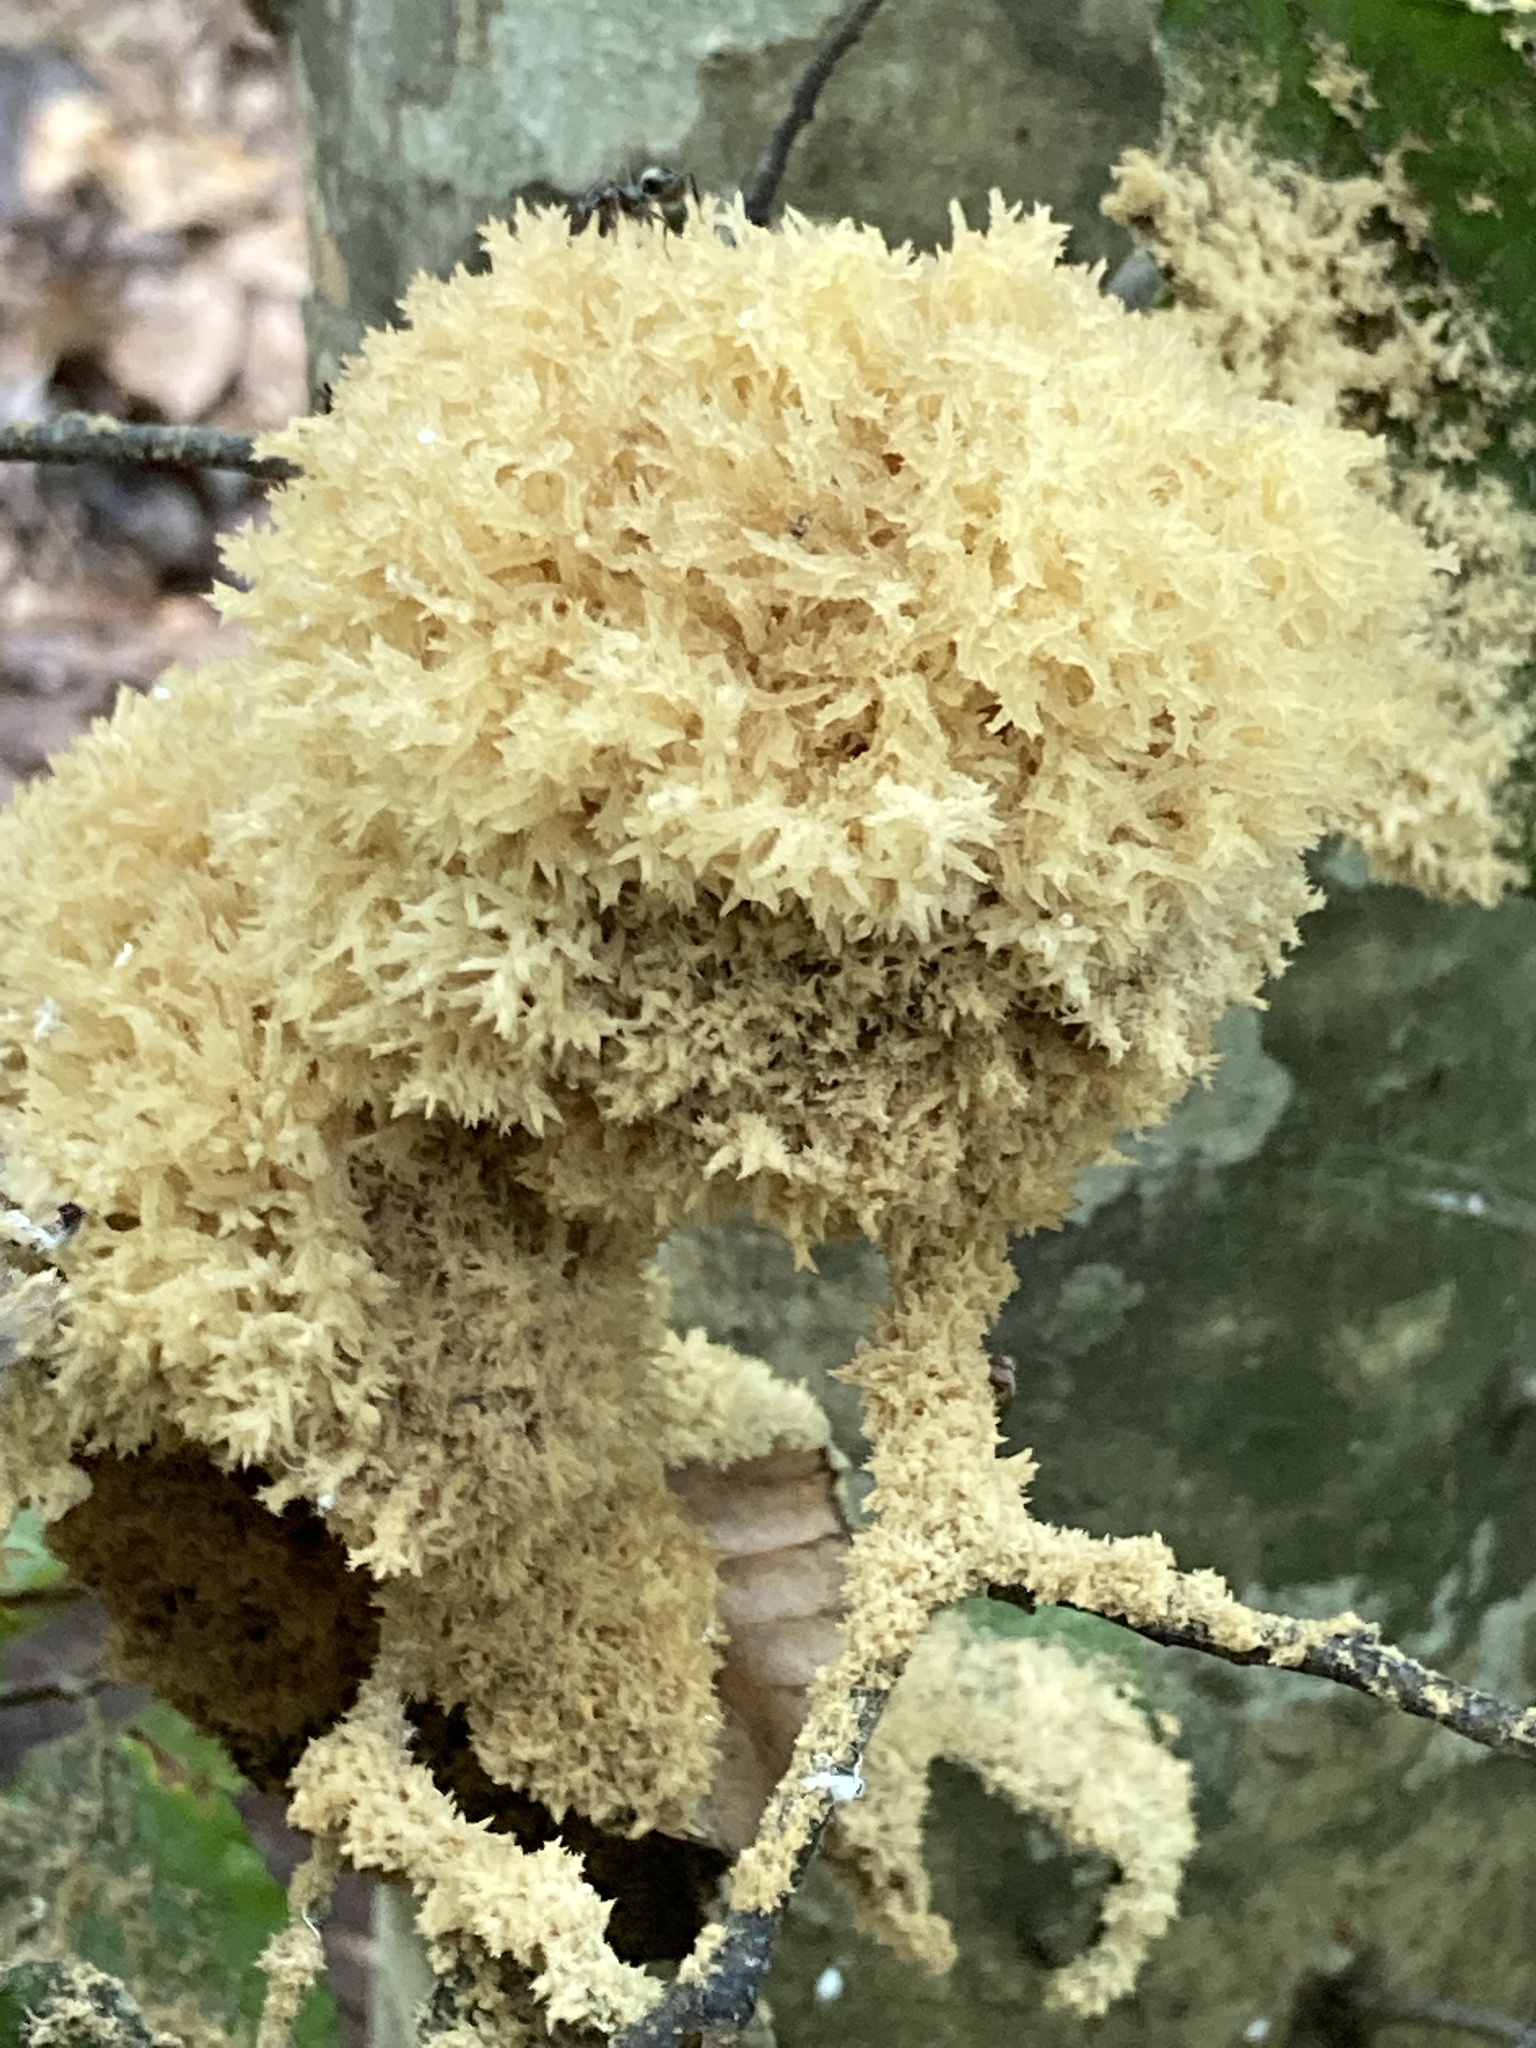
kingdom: Fungi
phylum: Ascomycota
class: Dothideomycetes
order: Capnodiales
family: Capnodiaceae
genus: Scorias
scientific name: Scorias spongiosa
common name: Black sooty mold
